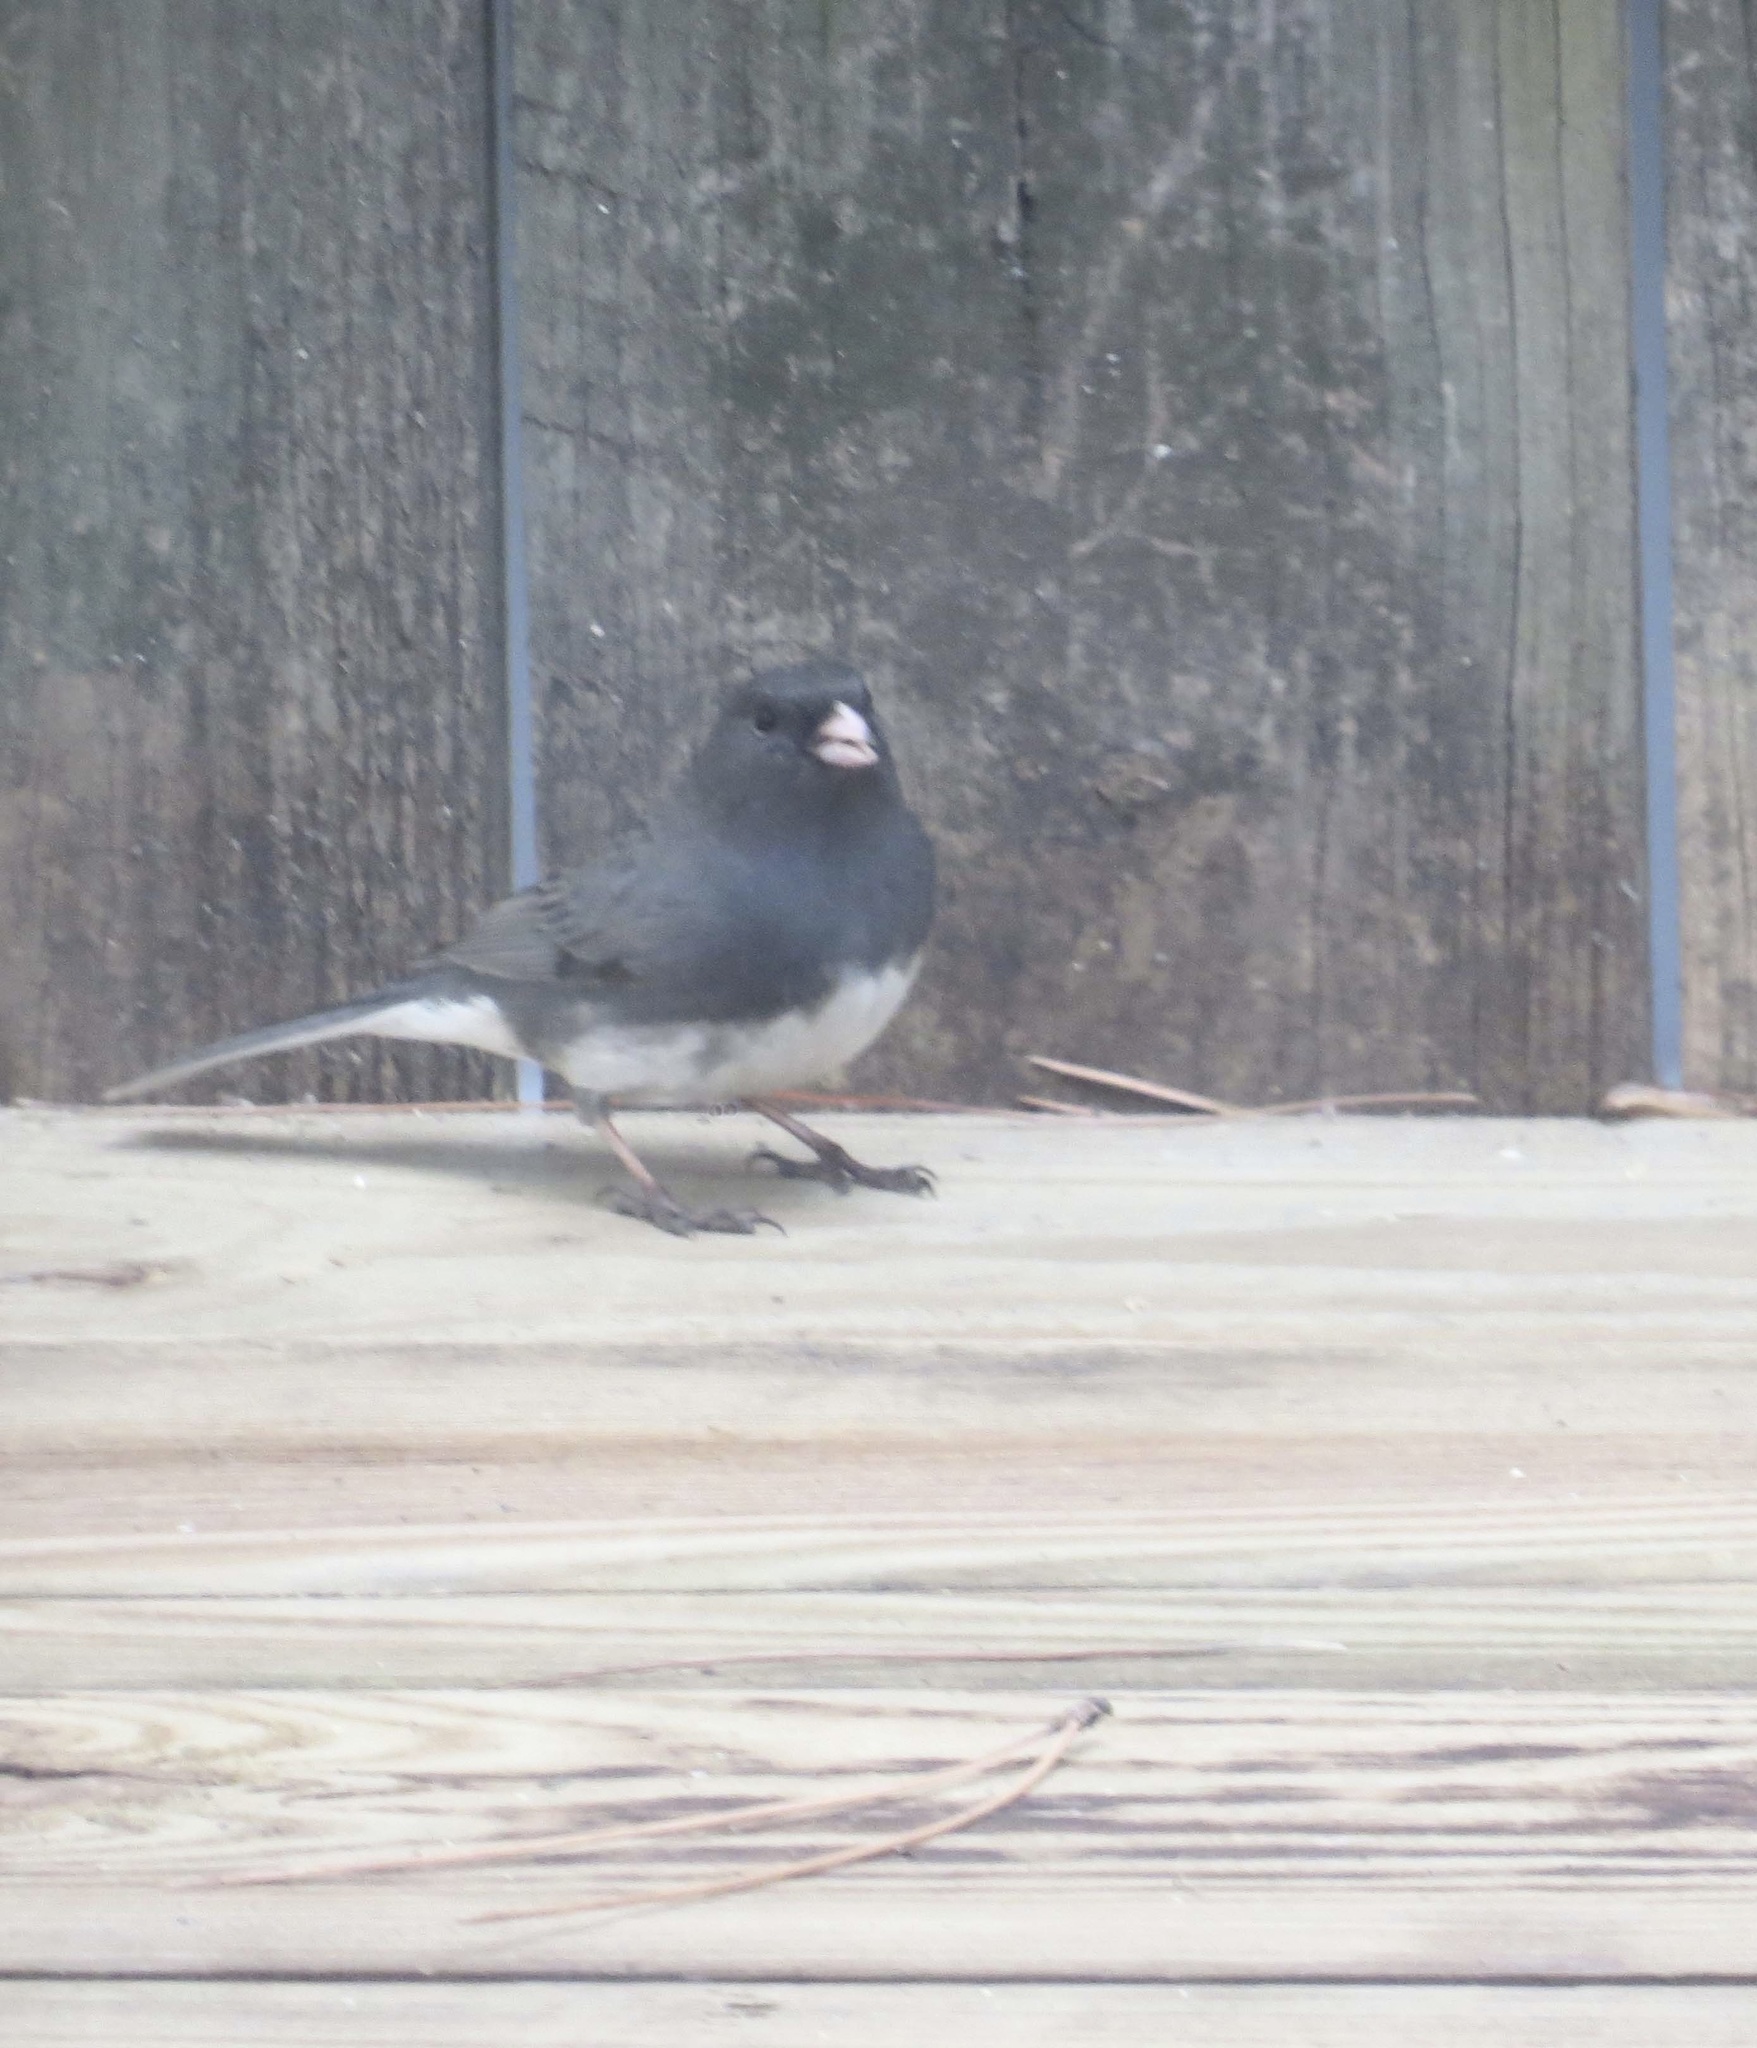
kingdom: Animalia
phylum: Chordata
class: Aves
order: Passeriformes
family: Passerellidae
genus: Junco
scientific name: Junco hyemalis
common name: Dark-eyed junco
